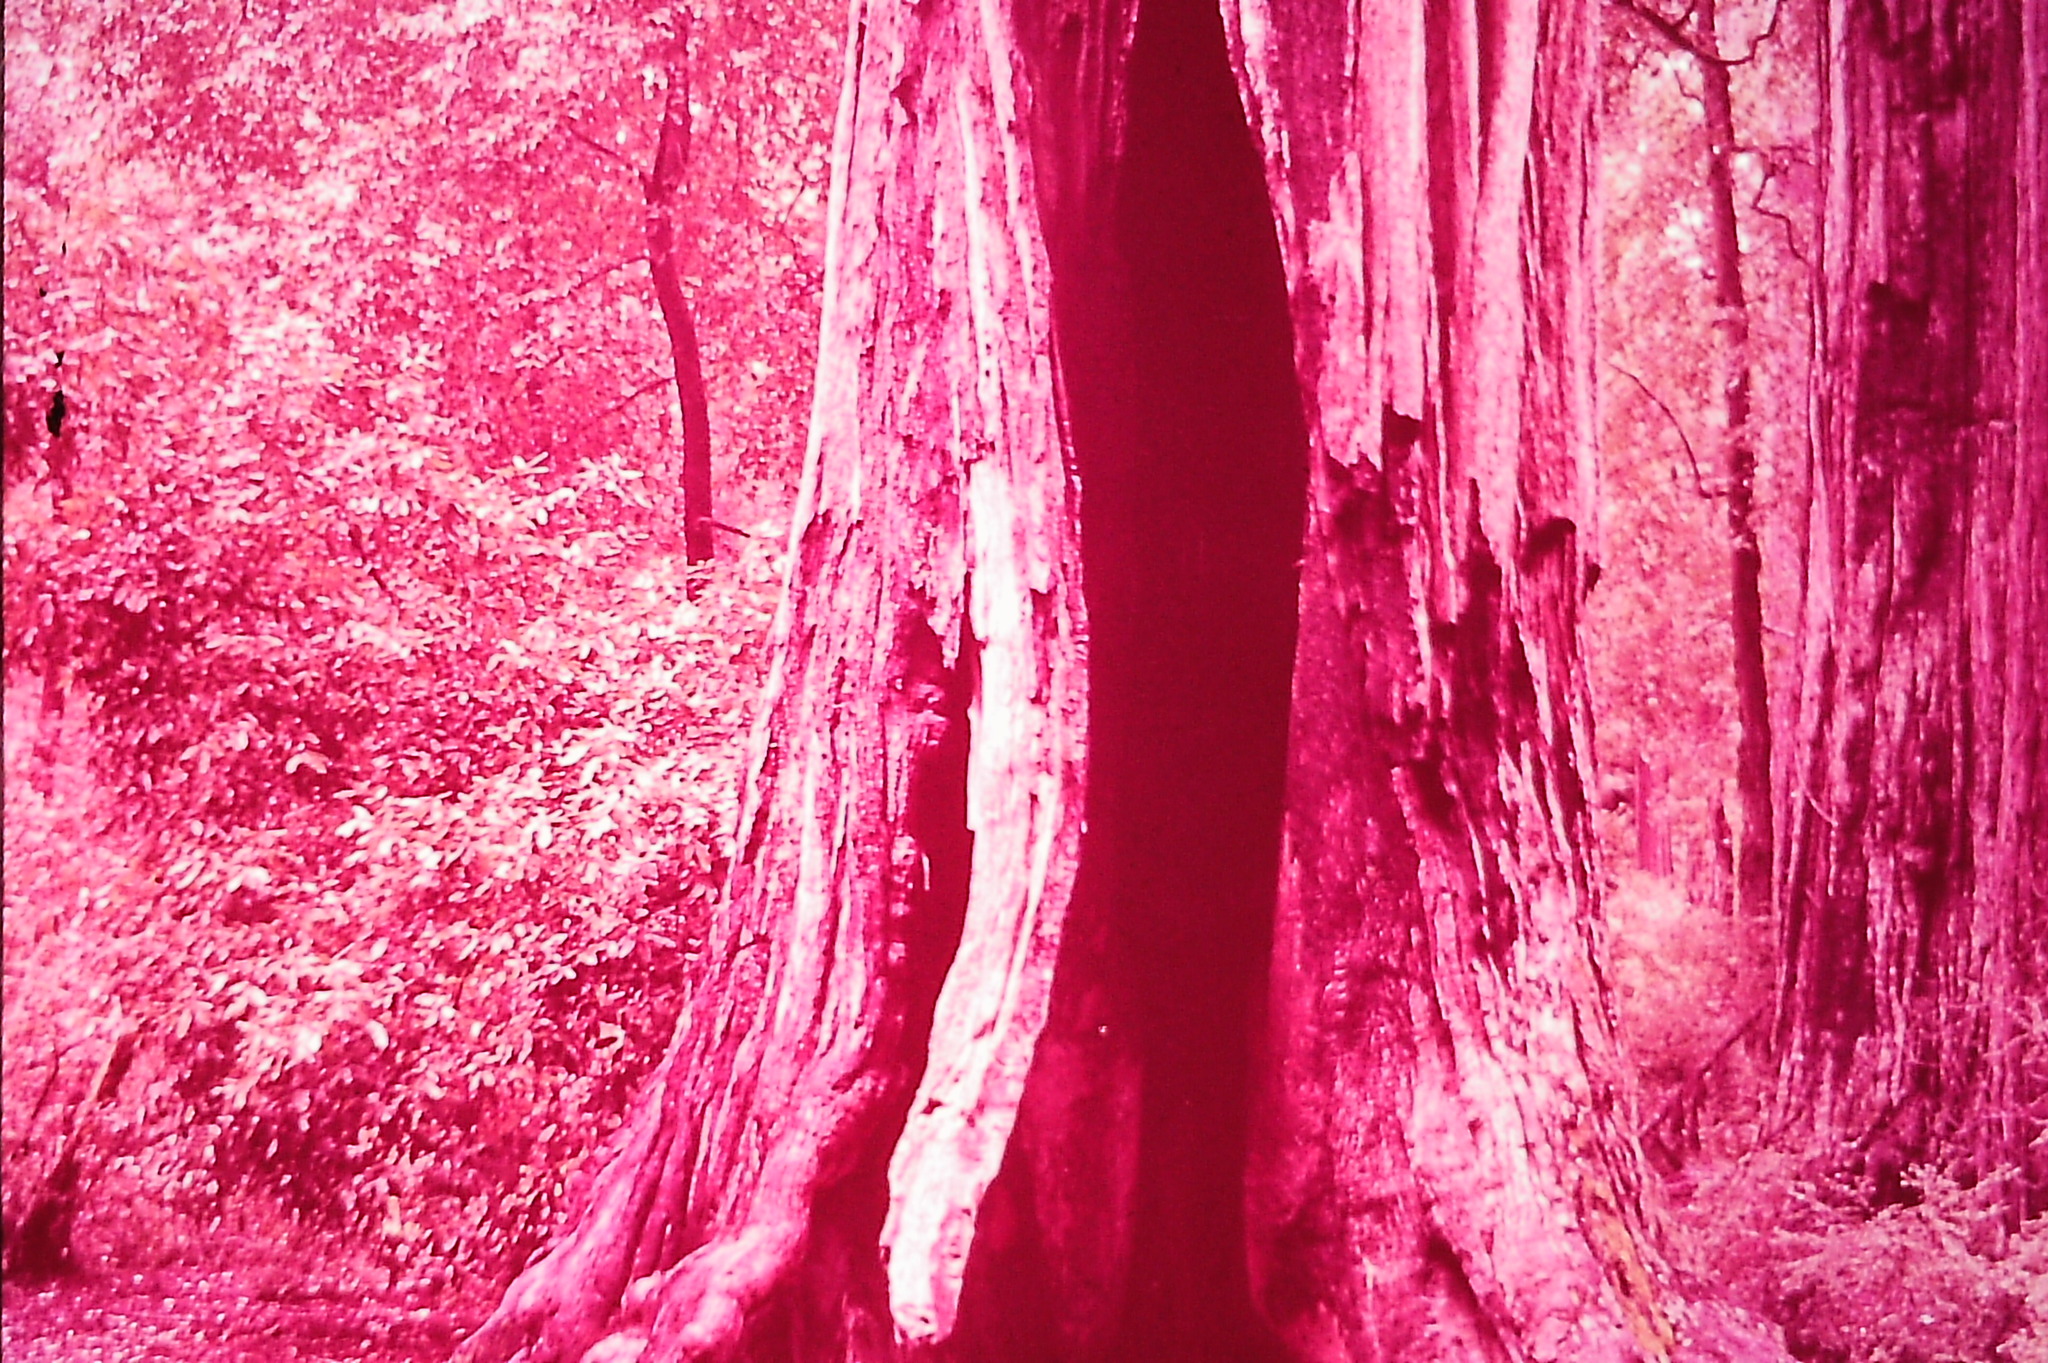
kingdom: Plantae
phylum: Tracheophyta
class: Pinopsida
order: Pinales
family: Cupressaceae
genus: Sequoia
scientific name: Sequoia sempervirens
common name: Coast redwood
